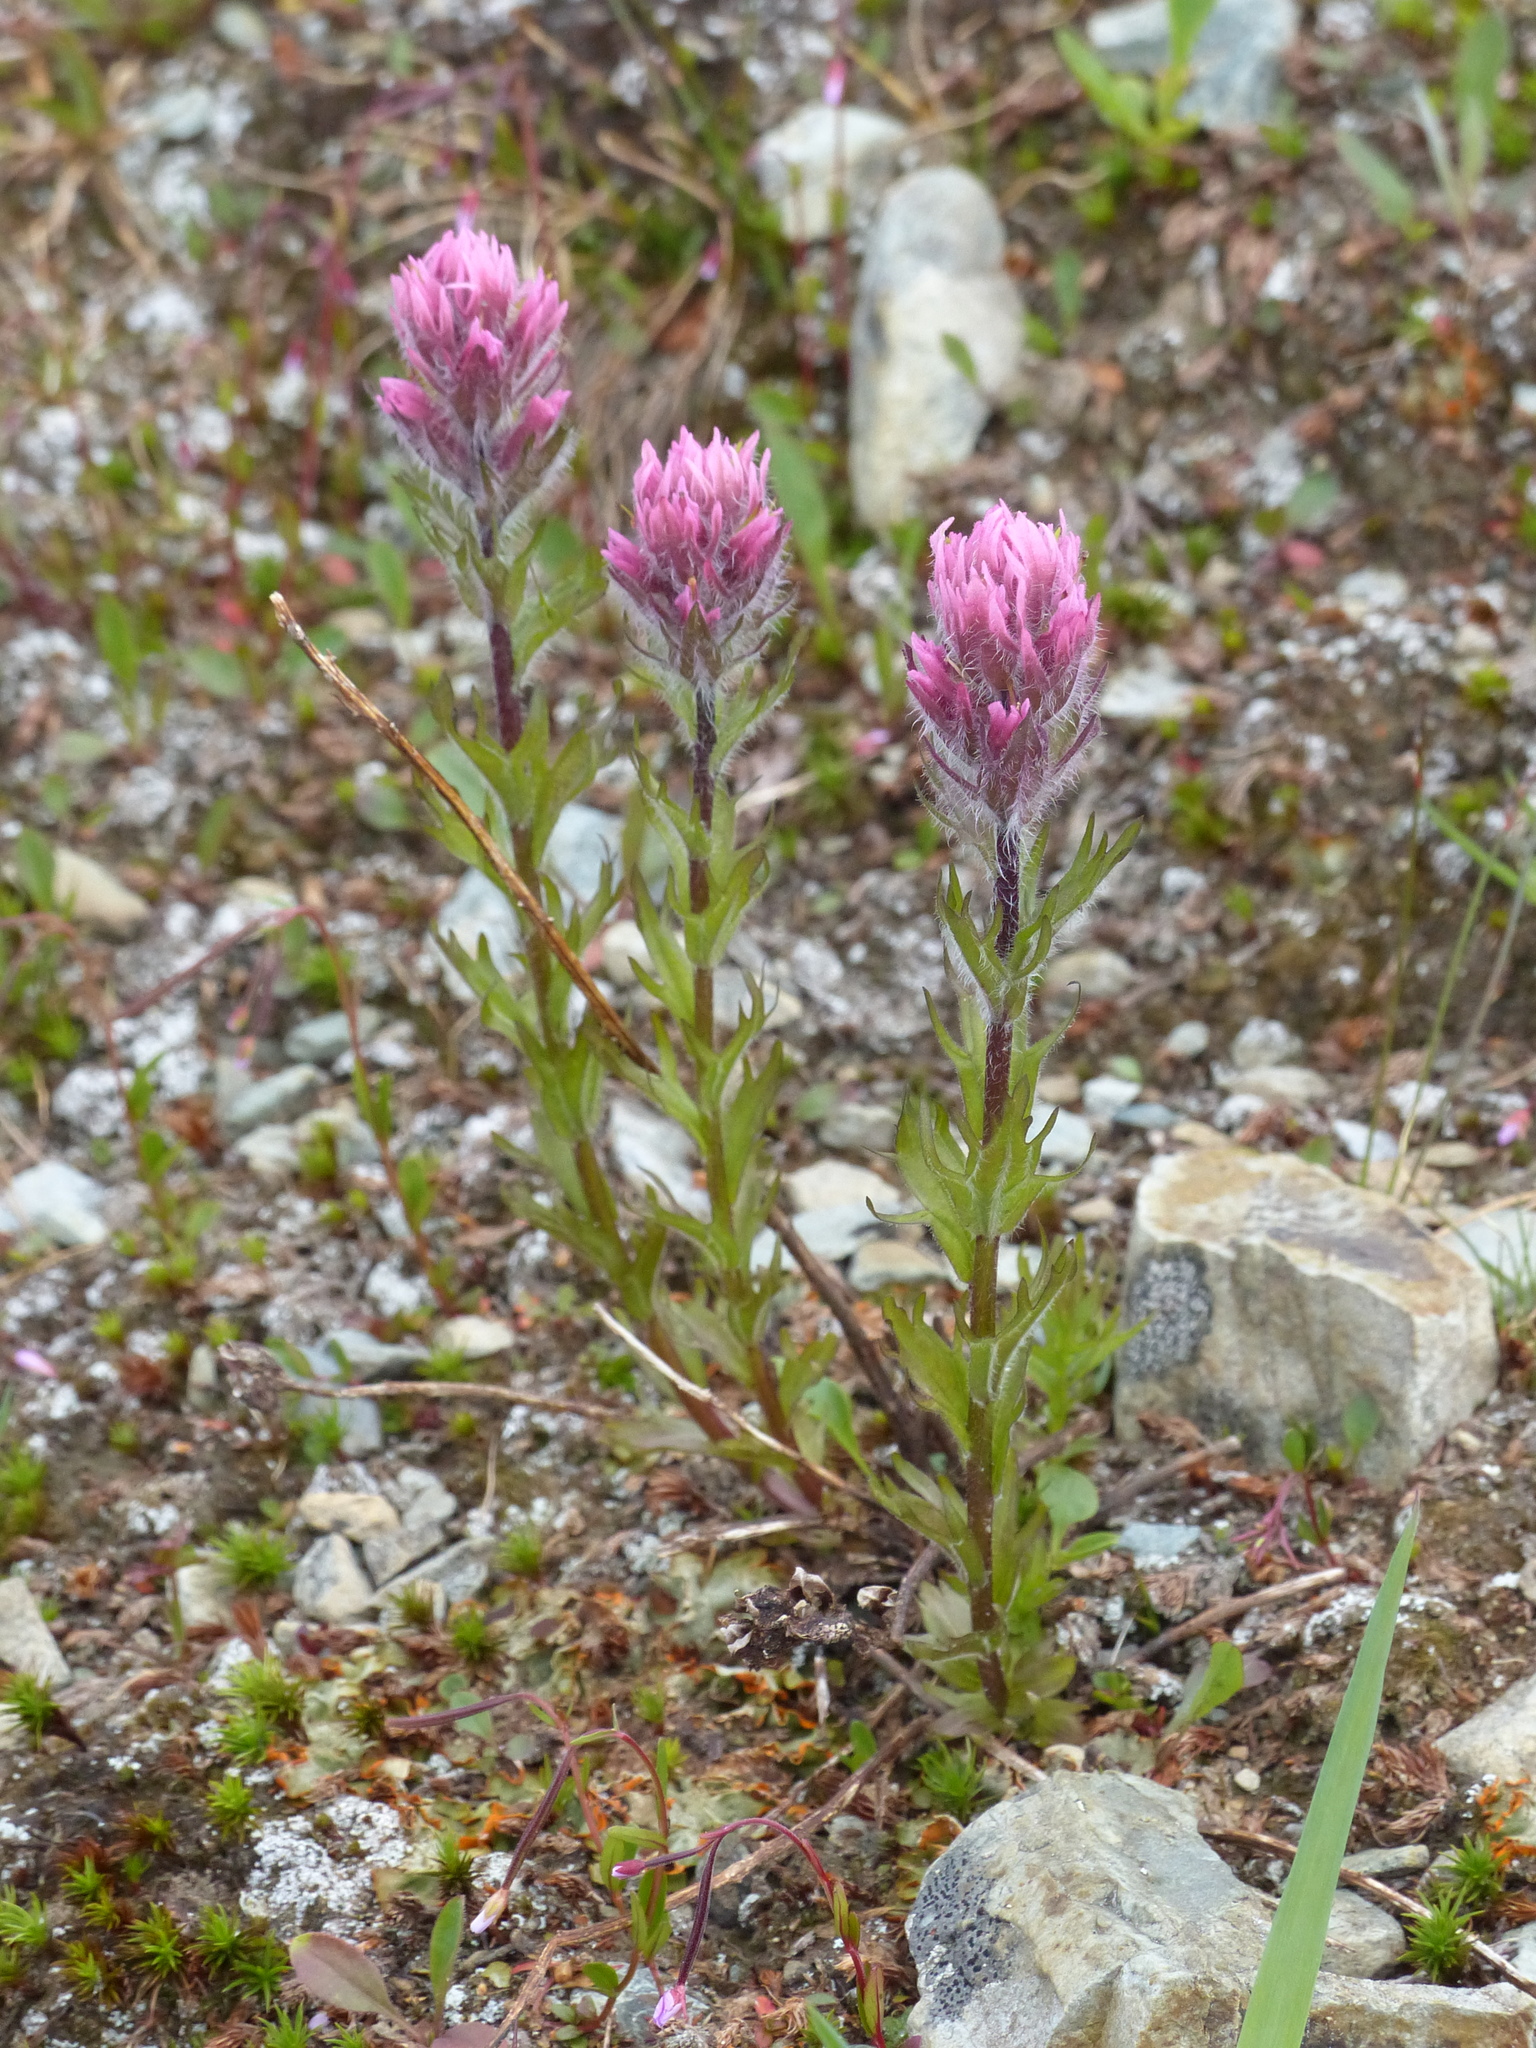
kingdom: Plantae
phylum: Tracheophyta
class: Magnoliopsida
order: Lamiales
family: Orobanchaceae
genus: Castilleja
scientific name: Castilleja parviflora
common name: Mountain paintbrush
